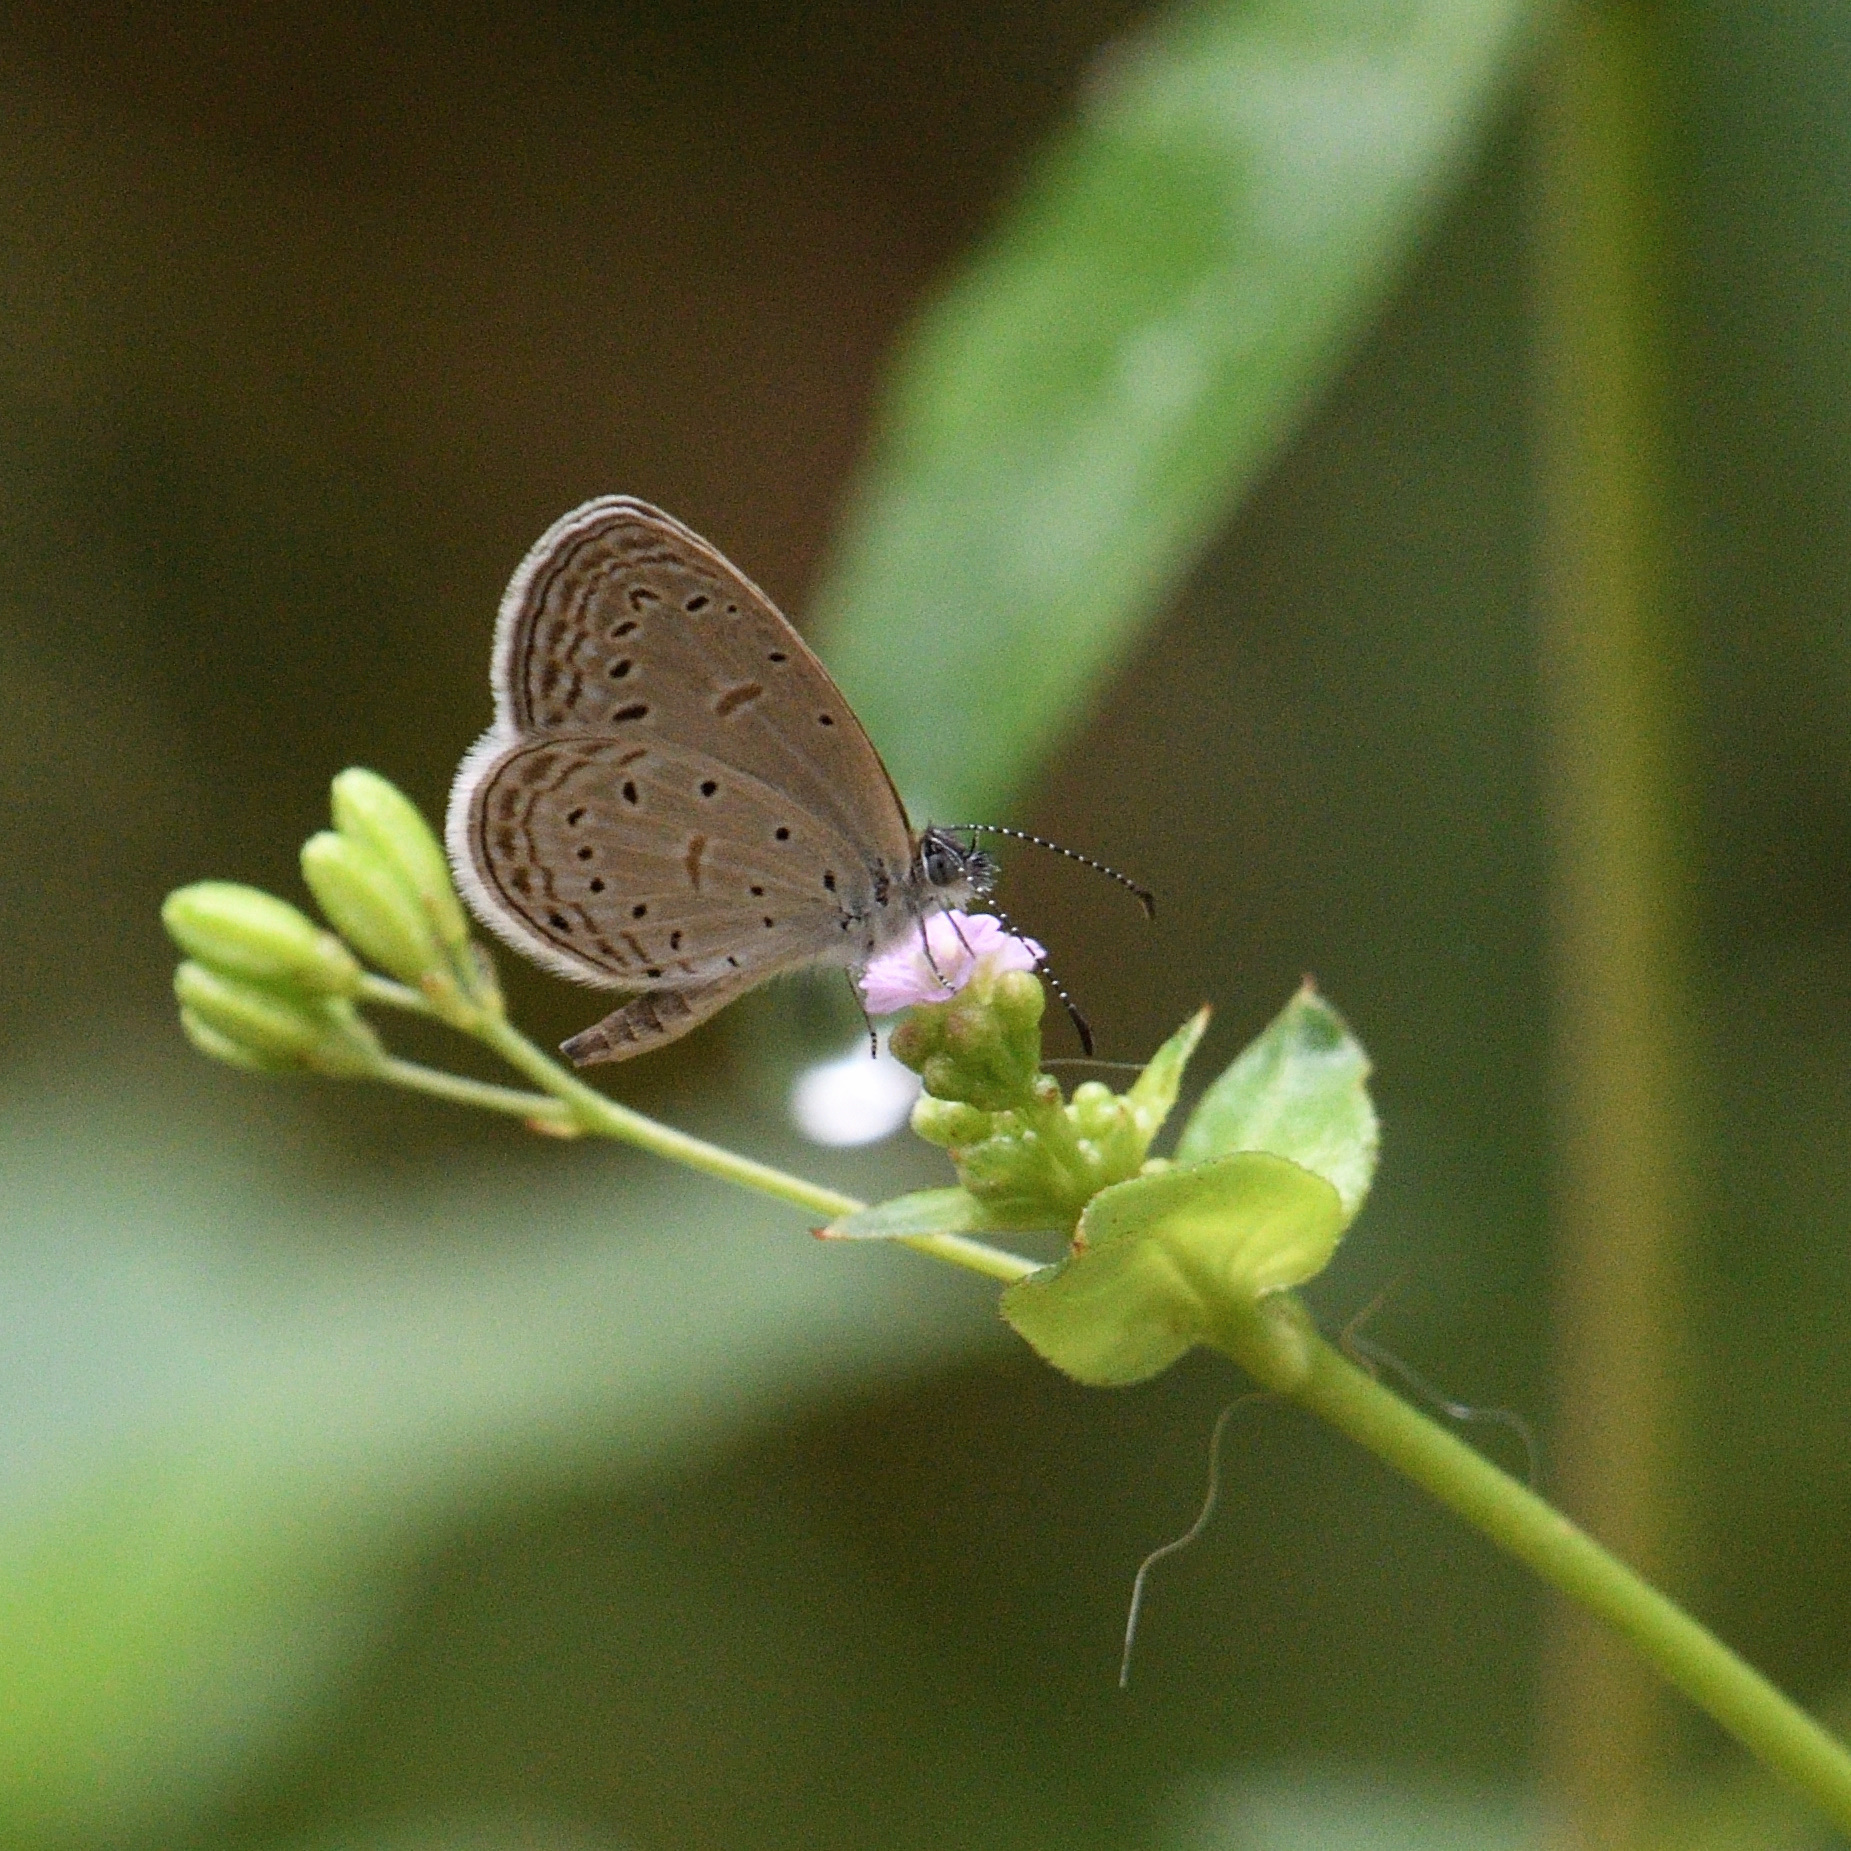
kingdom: Animalia
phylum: Arthropoda
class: Insecta
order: Lepidoptera
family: Lycaenidae
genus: Zizula
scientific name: Zizula hylax
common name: Gaika blue
